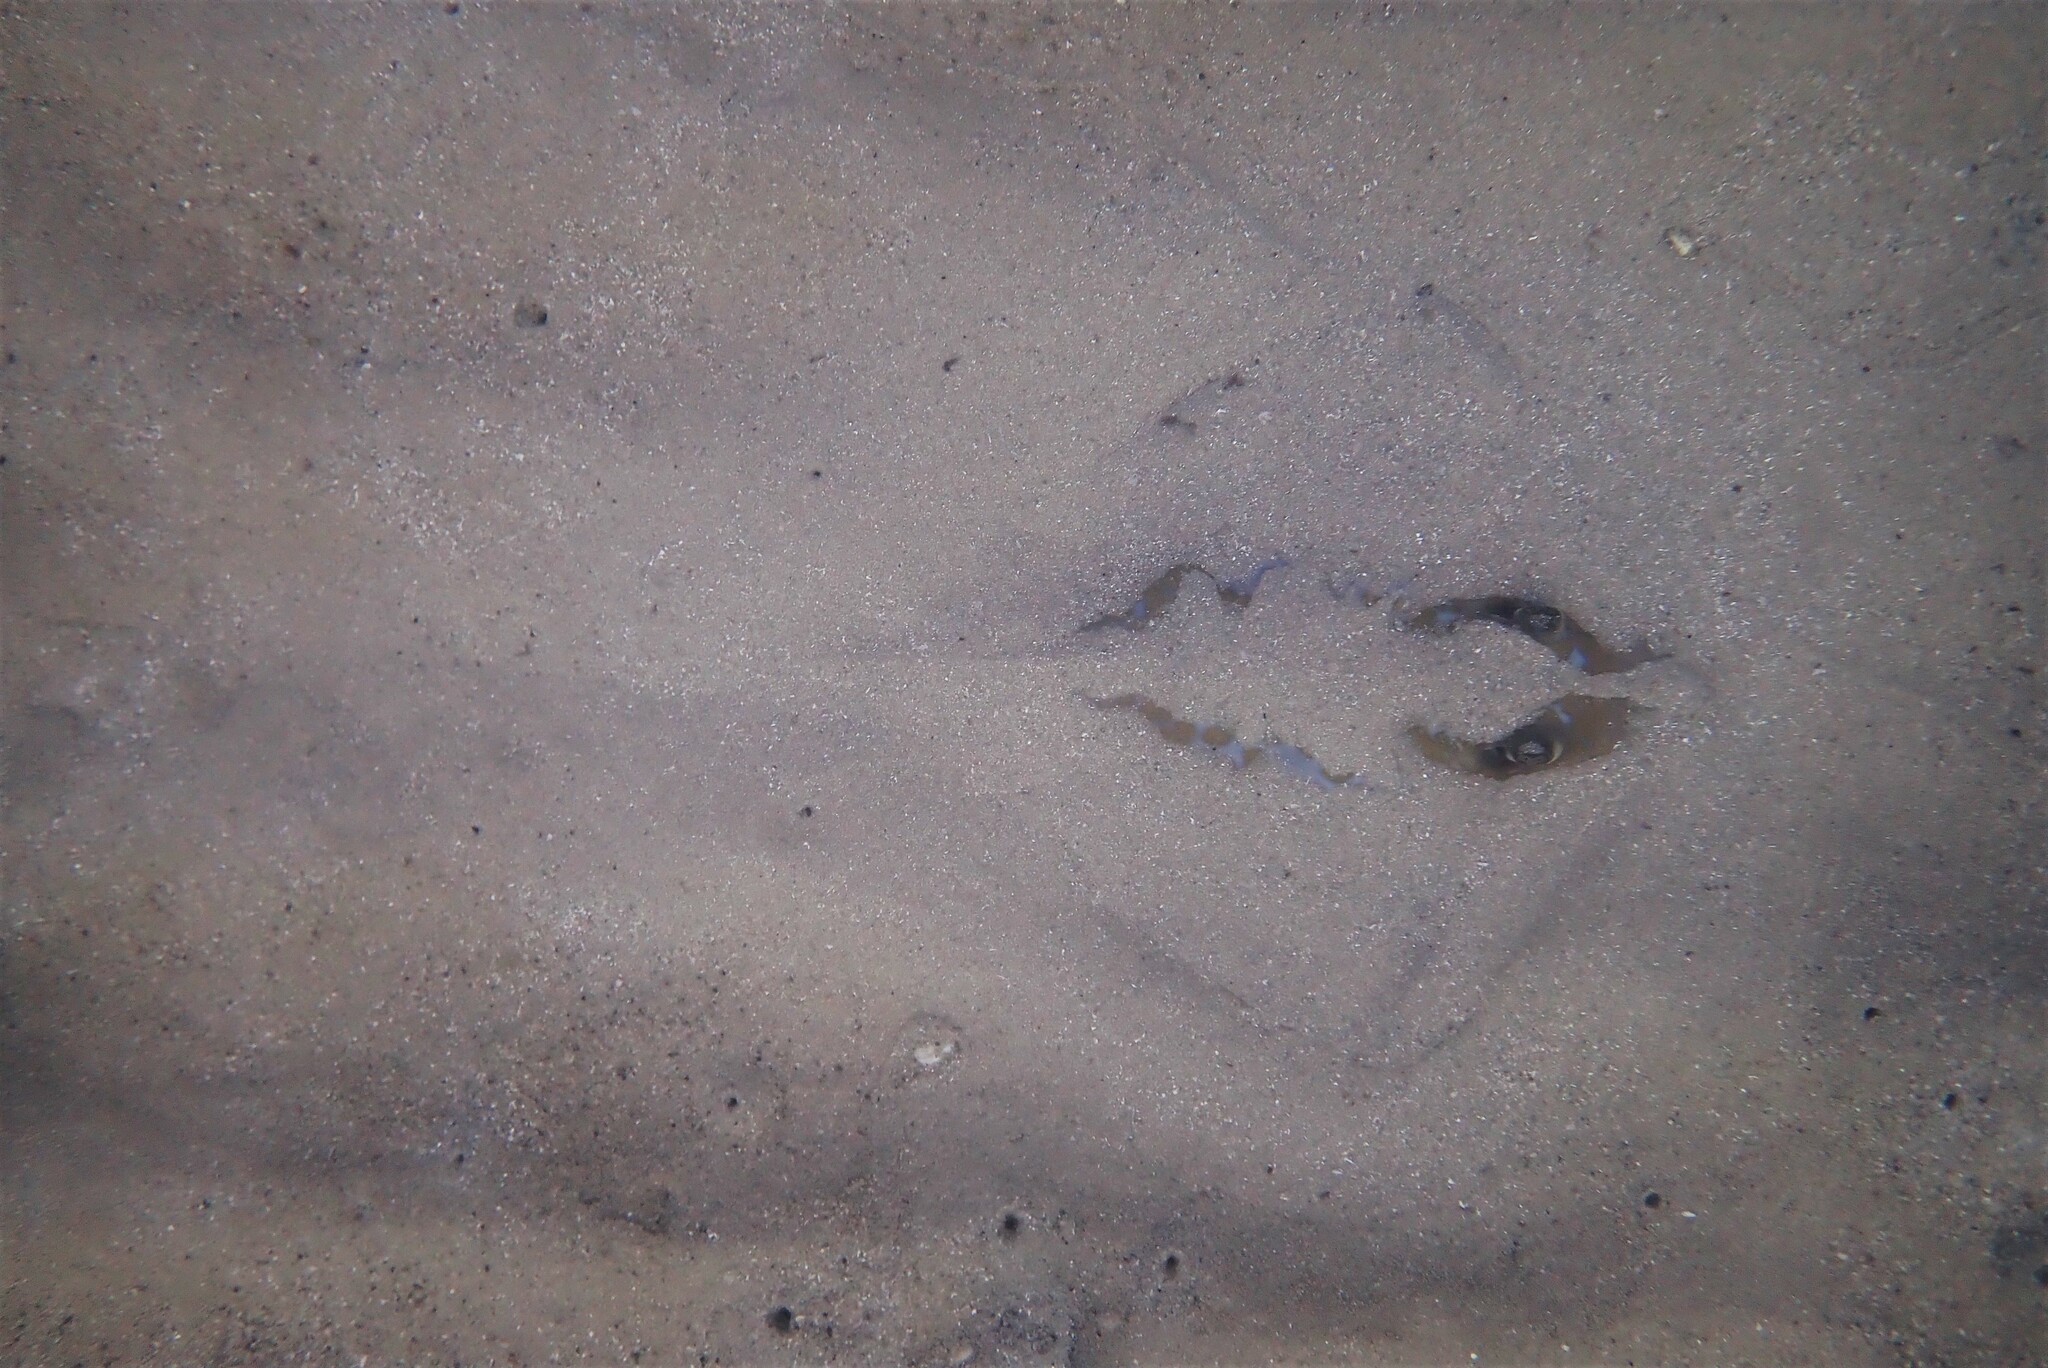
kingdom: Animalia
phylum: Chordata
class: Elasmobranchii
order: Myliobatiformes
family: Dasyatidae
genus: Dasyatis
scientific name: Dasyatis marmorata
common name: Marbled stingray
